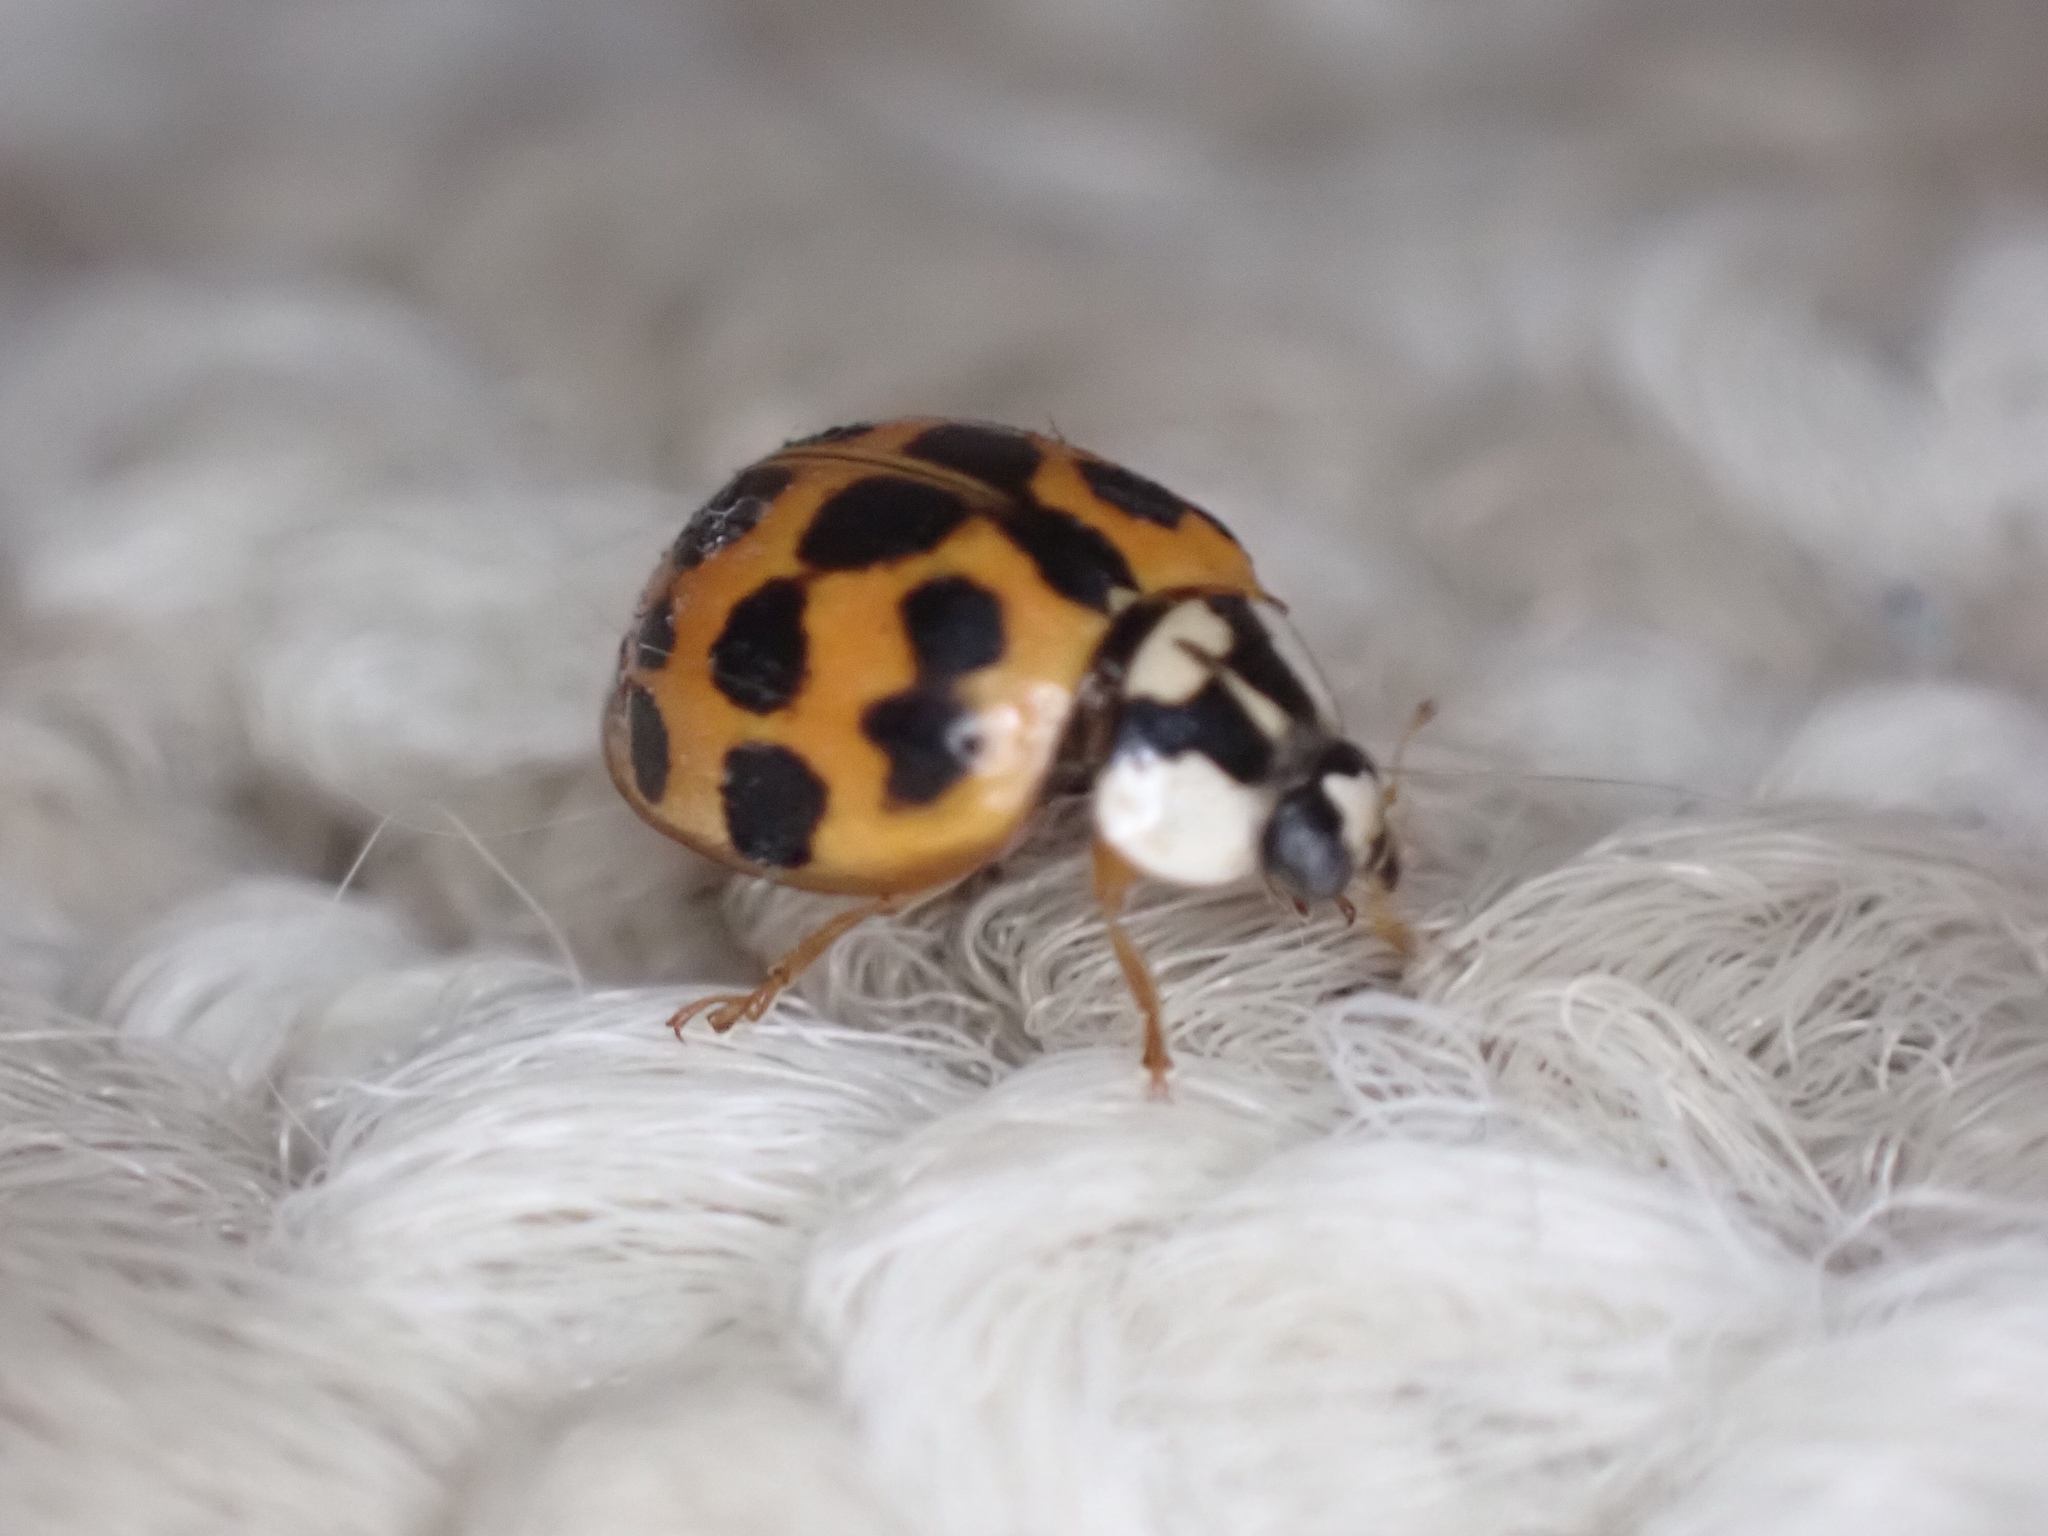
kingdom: Animalia
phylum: Arthropoda
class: Insecta
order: Coleoptera
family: Coccinellidae
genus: Harmonia
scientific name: Harmonia axyridis
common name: Harlequin ladybird
